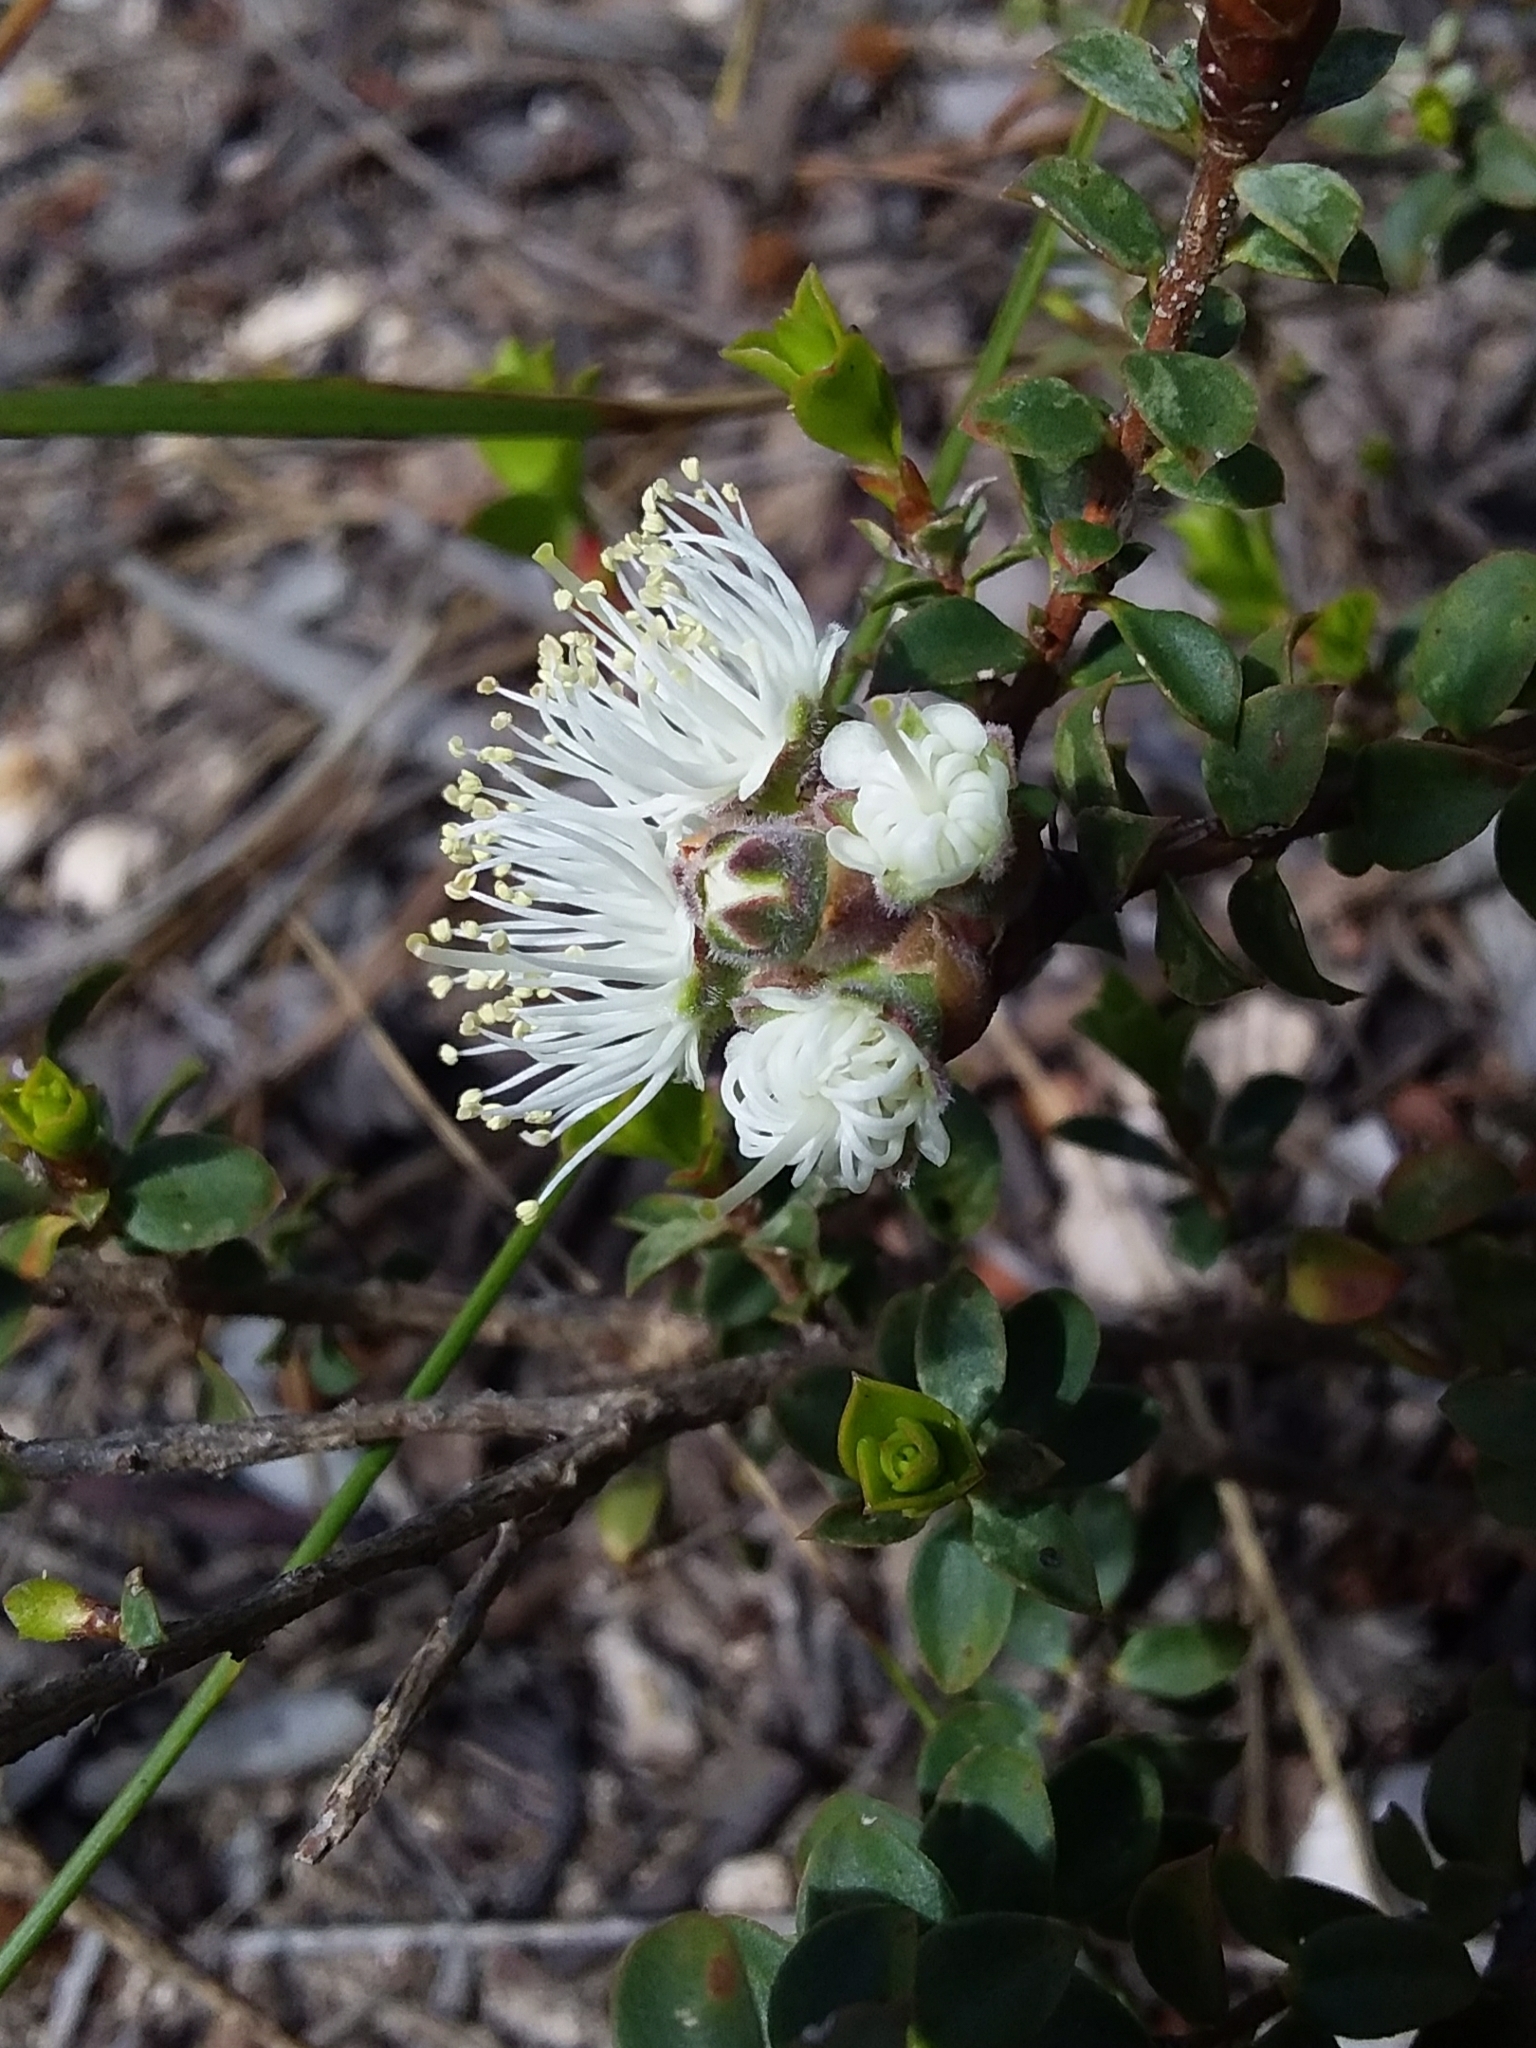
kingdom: Plantae
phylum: Tracheophyta
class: Magnoliopsida
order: Myrtales
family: Myrtaceae
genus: Kunzea
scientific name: Kunzea pomifera
